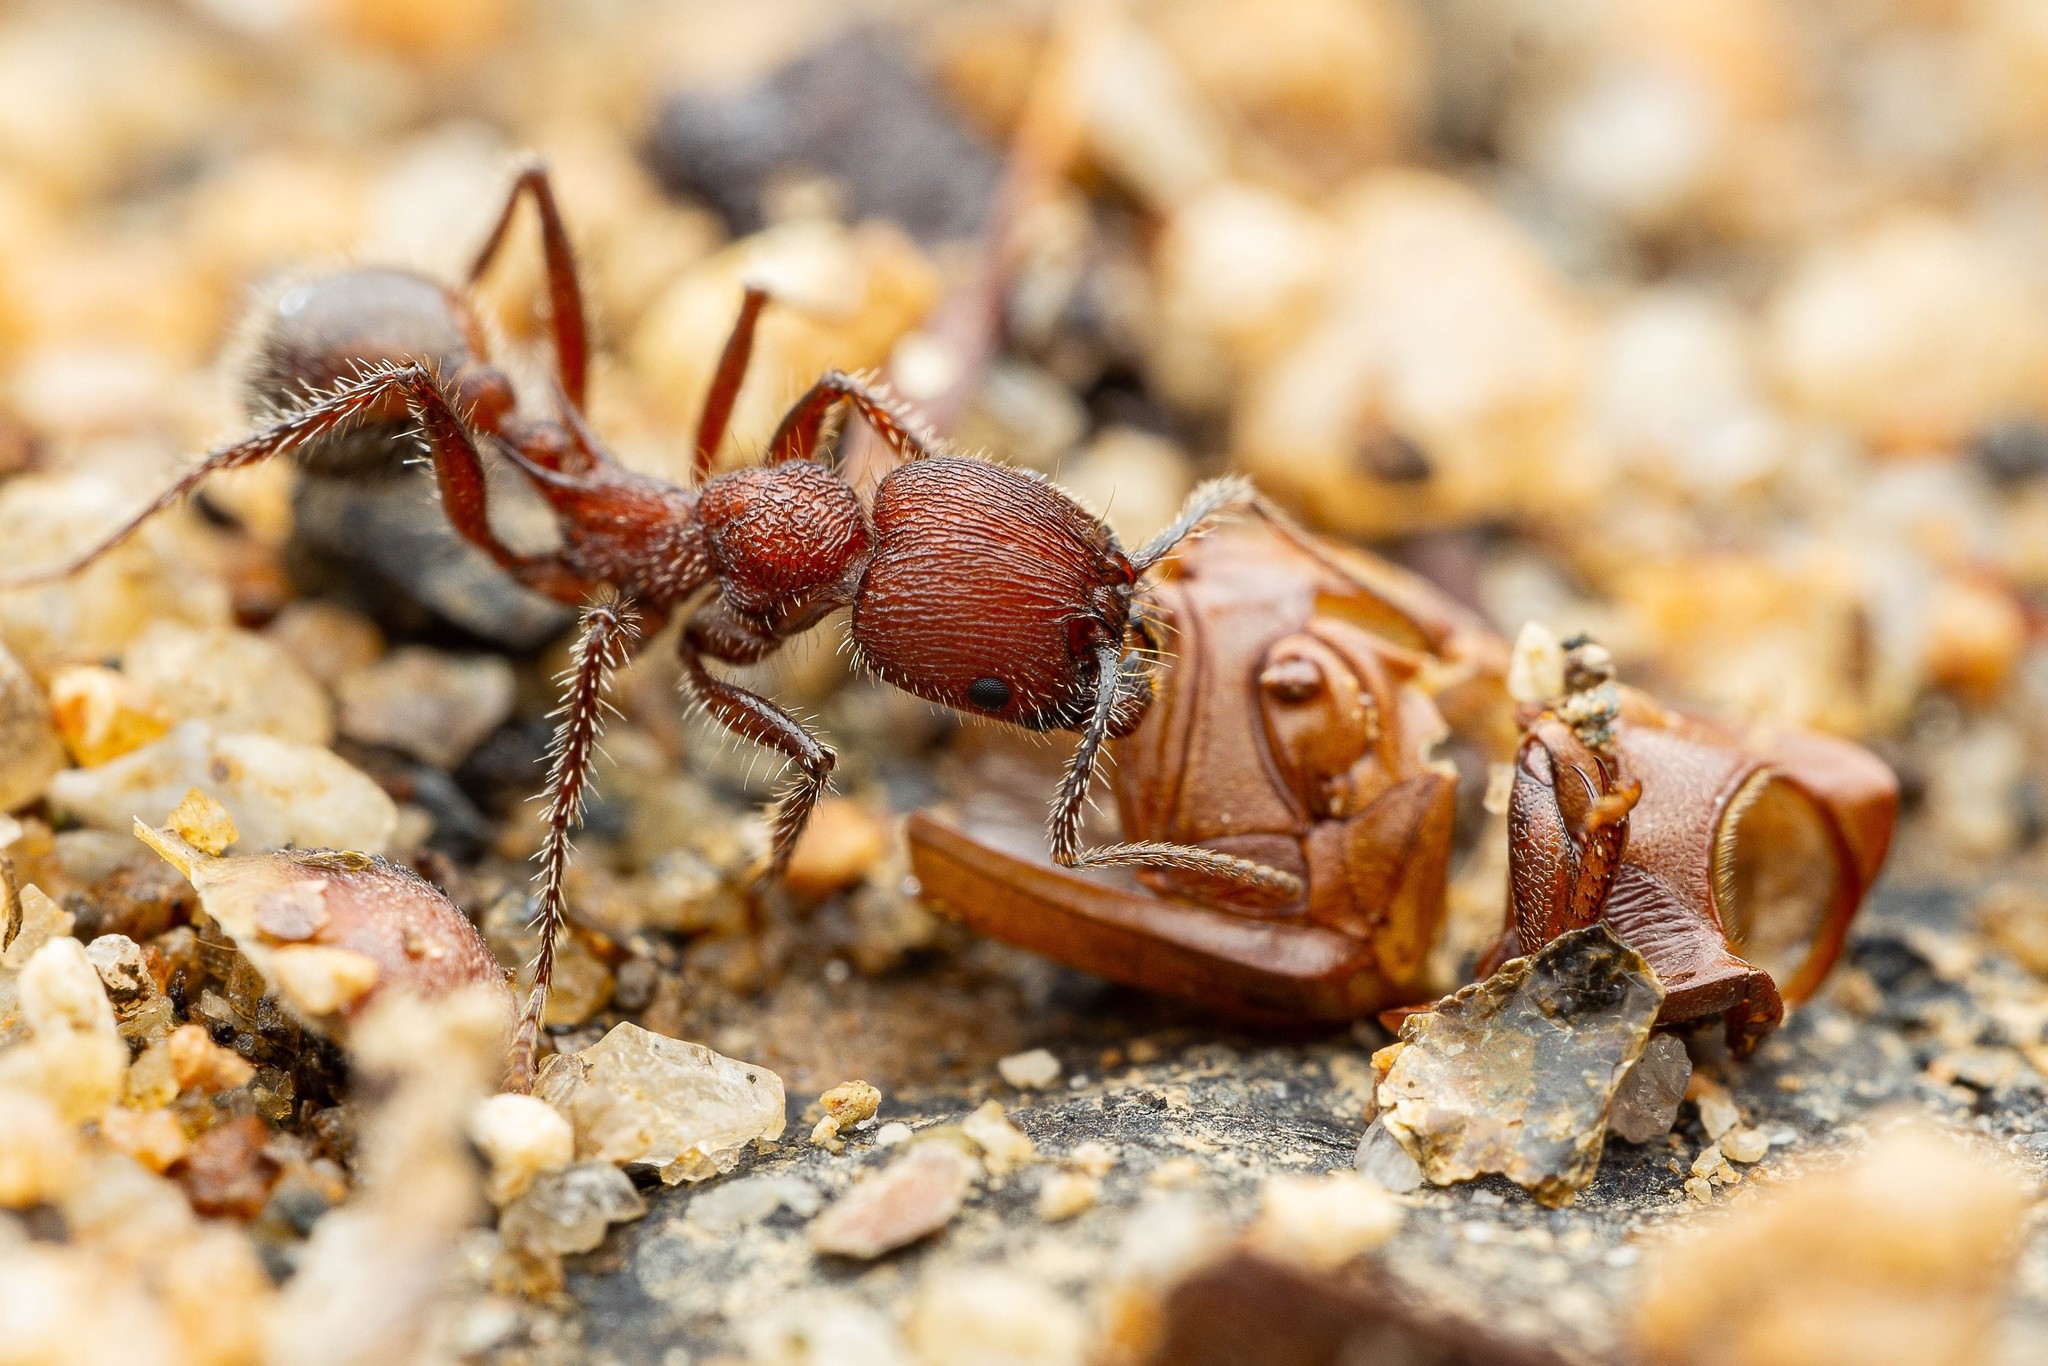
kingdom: Animalia
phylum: Arthropoda
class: Insecta
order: Hymenoptera
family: Formicidae
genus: Veromessor
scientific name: Veromessor andrei
